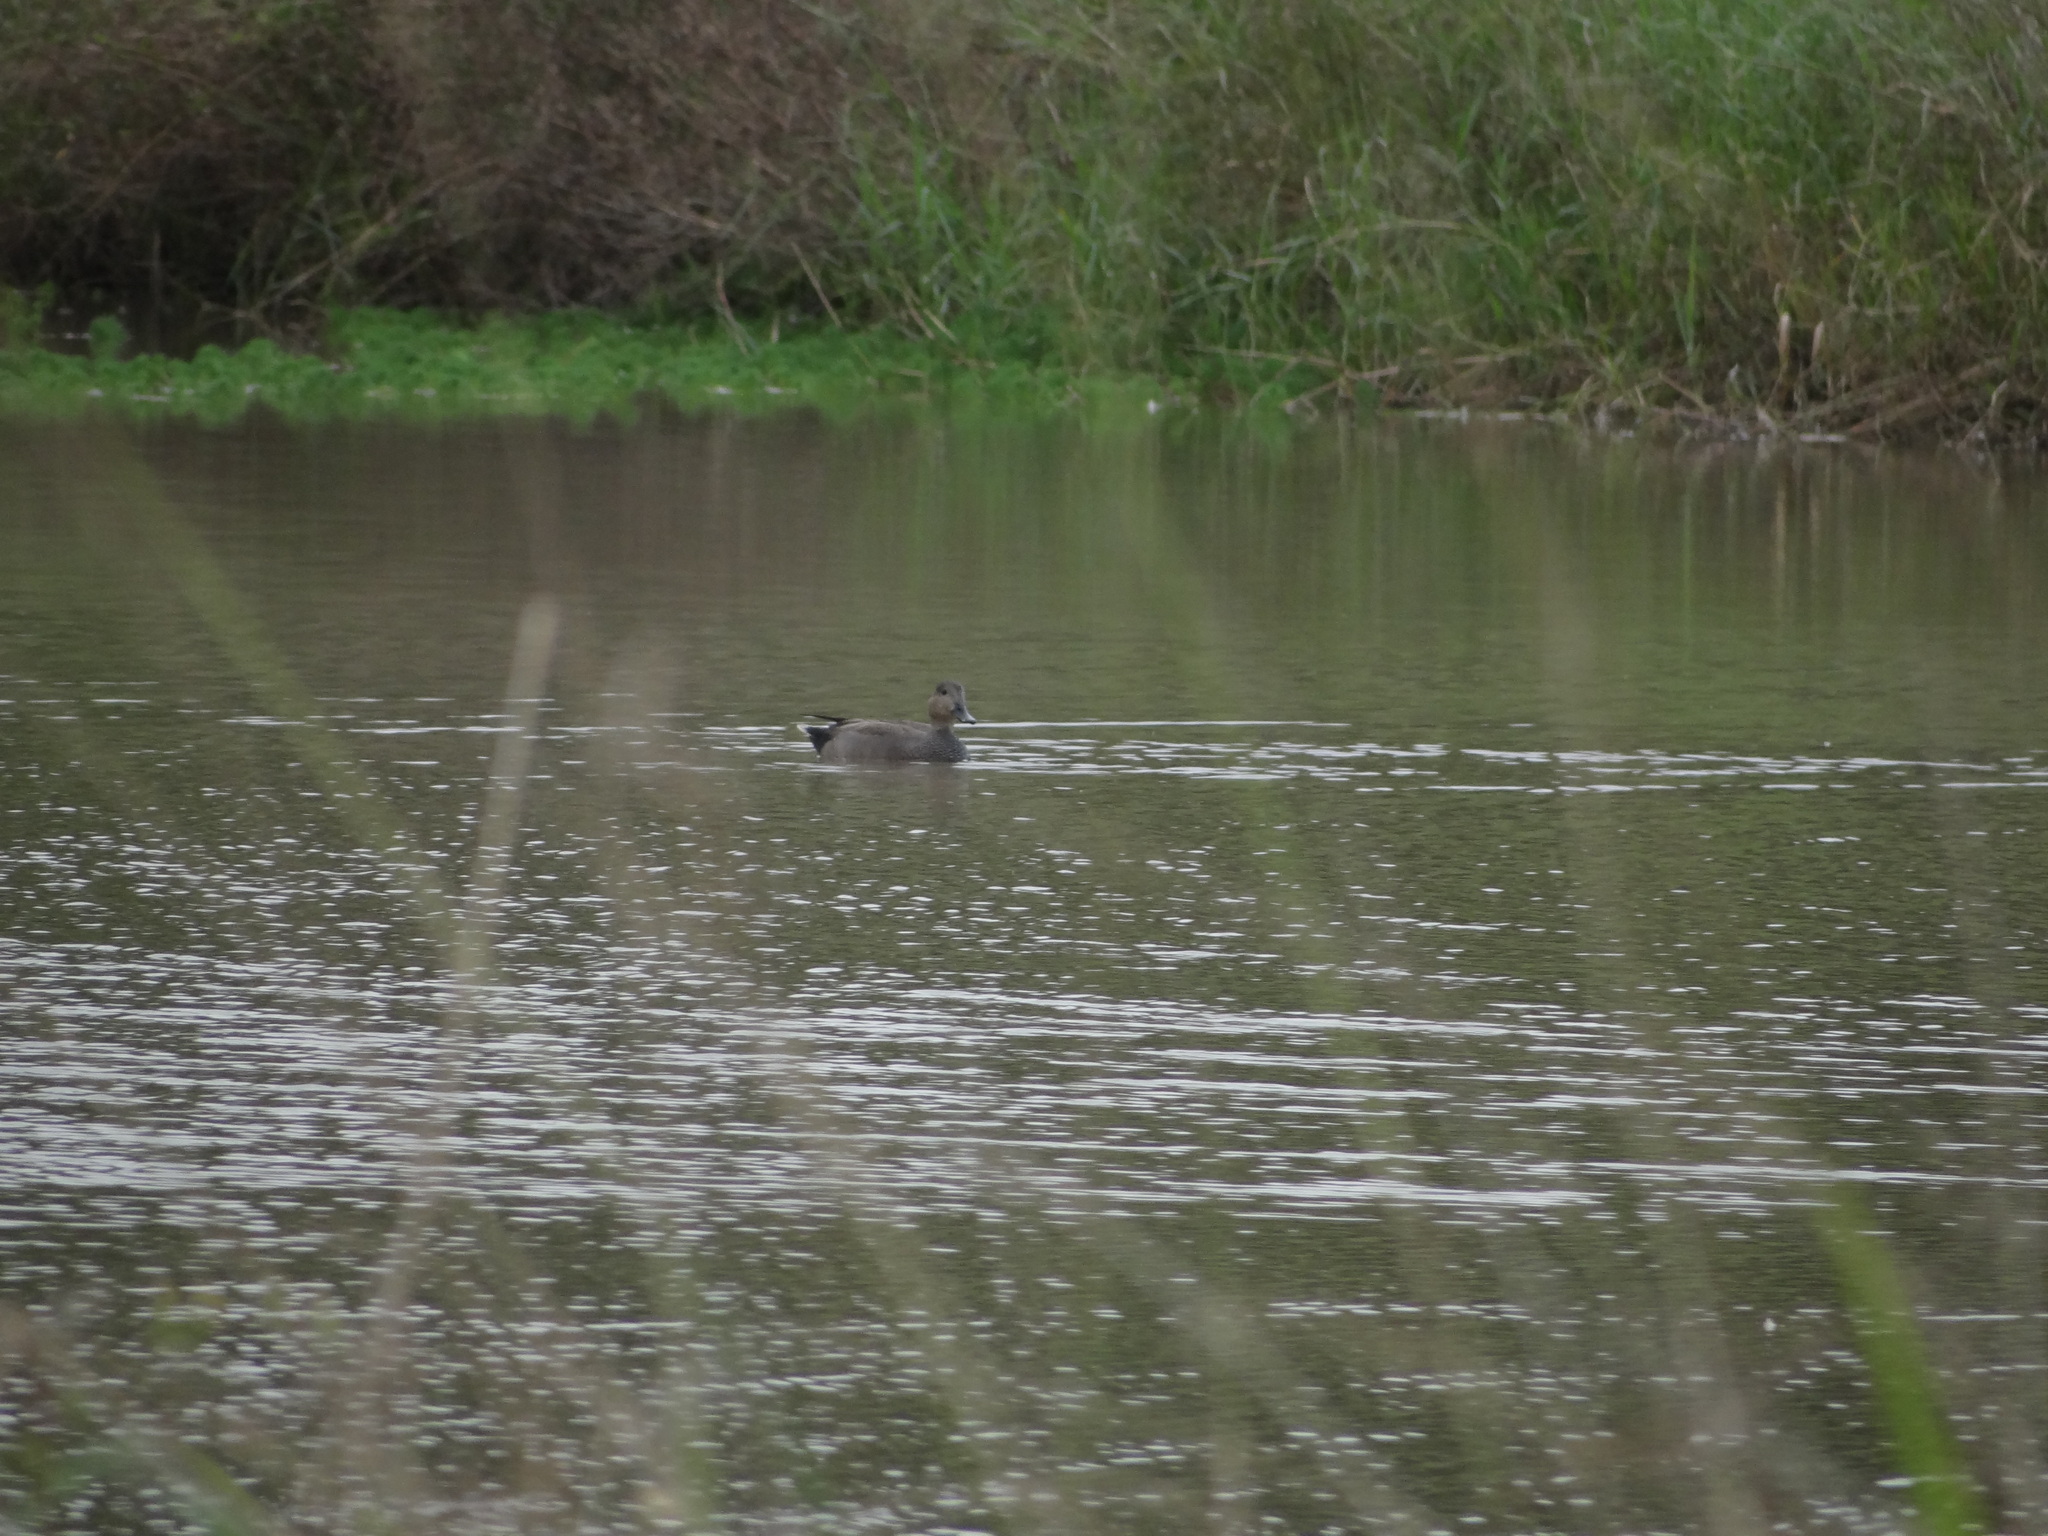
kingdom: Animalia
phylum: Chordata
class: Aves
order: Anseriformes
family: Anatidae
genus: Mareca
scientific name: Mareca strepera
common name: Gadwall
